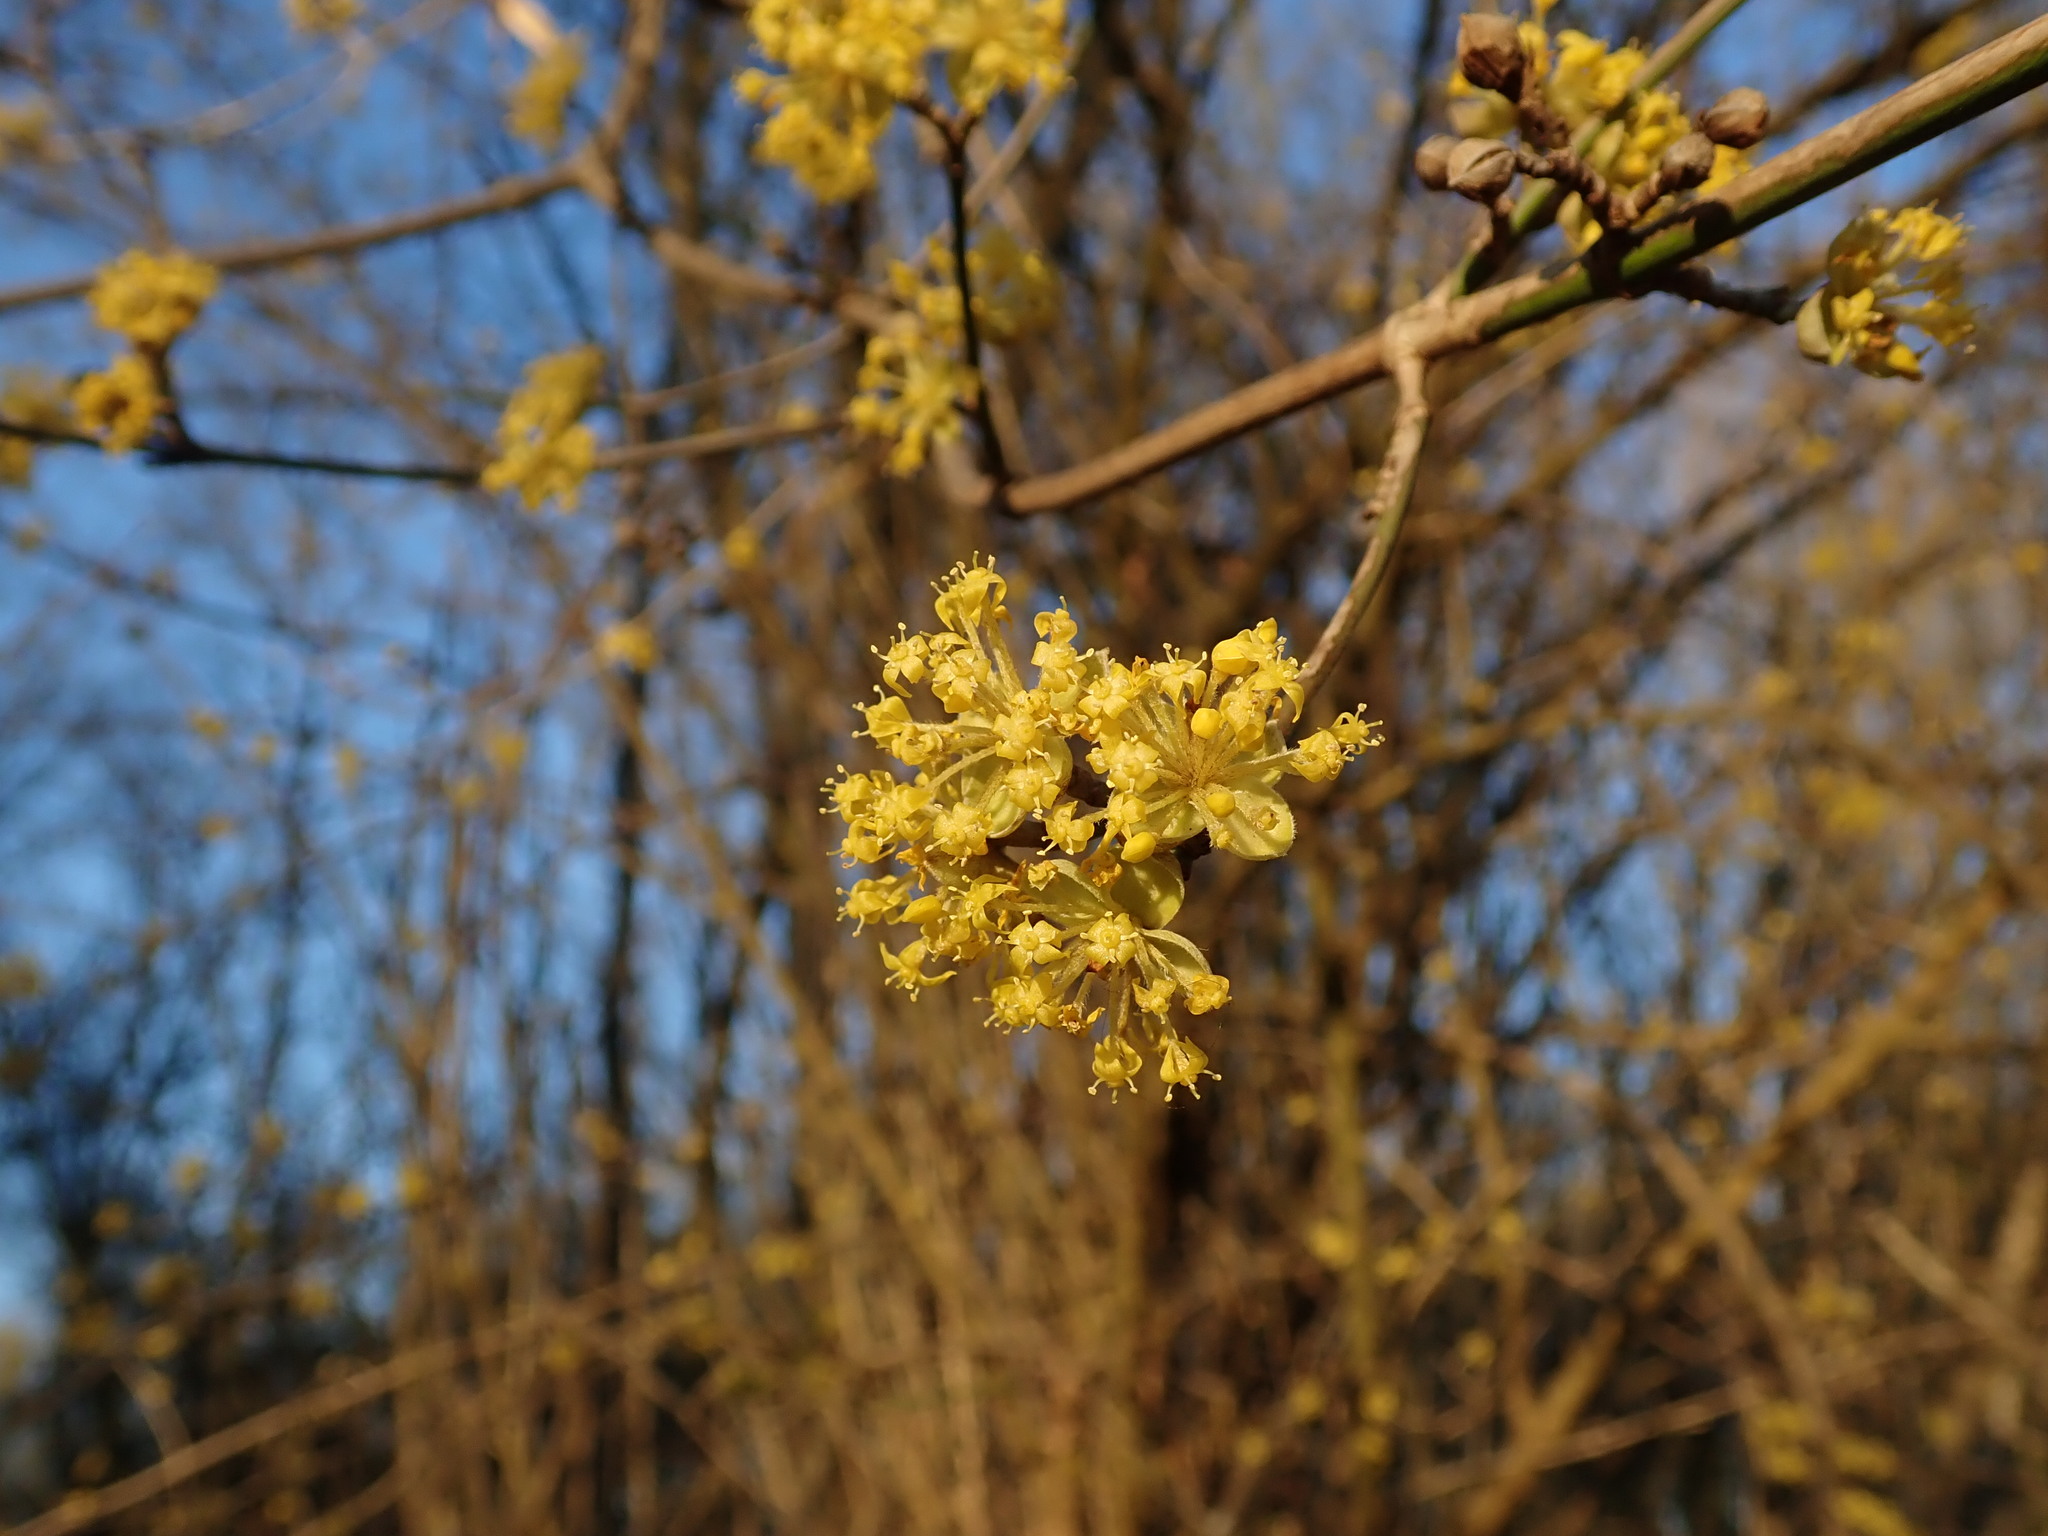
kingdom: Plantae
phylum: Tracheophyta
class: Magnoliopsida
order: Cornales
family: Cornaceae
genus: Cornus
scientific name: Cornus mas
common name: Cornelian-cherry
